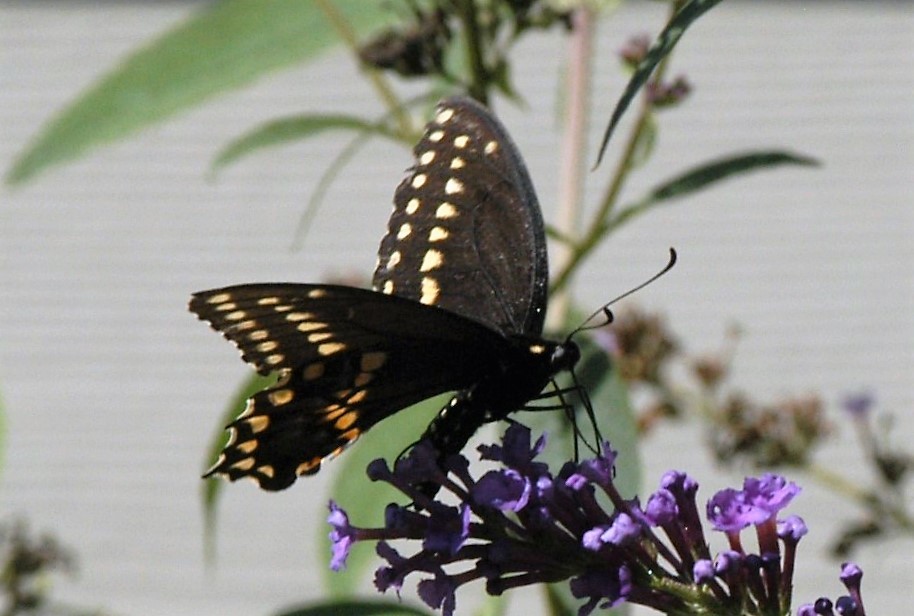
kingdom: Animalia
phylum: Arthropoda
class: Insecta
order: Lepidoptera
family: Papilionidae
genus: Papilio
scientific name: Papilio polyxenes
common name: Black swallowtail
